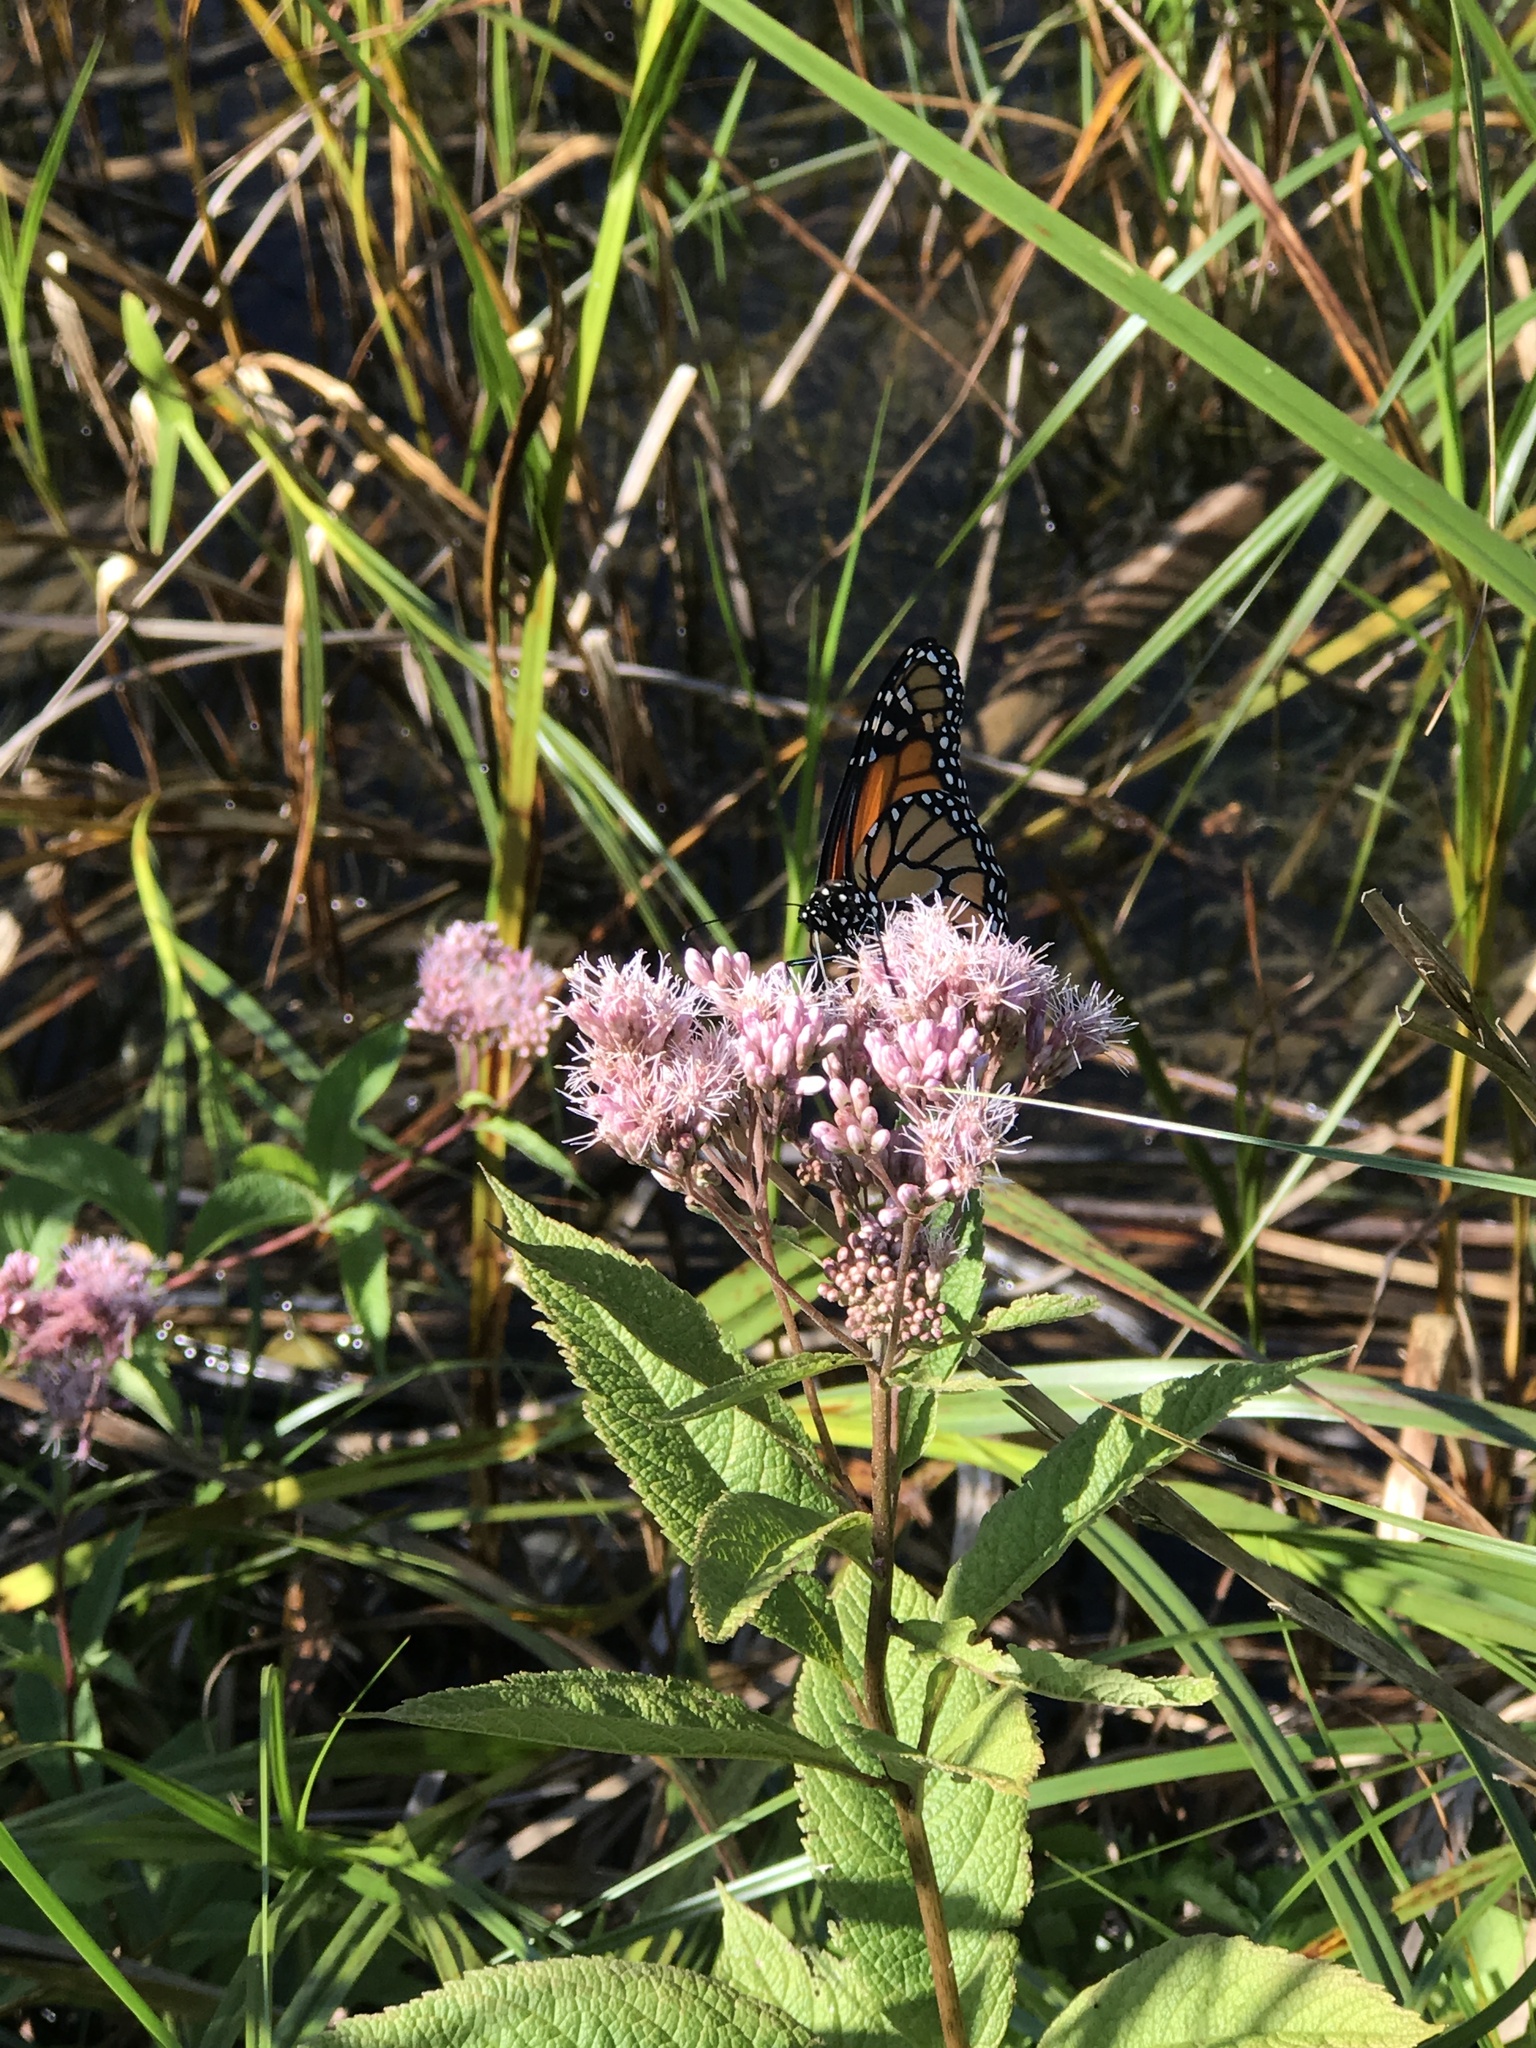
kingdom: Animalia
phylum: Arthropoda
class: Insecta
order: Lepidoptera
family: Nymphalidae
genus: Danaus
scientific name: Danaus plexippus
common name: Monarch
